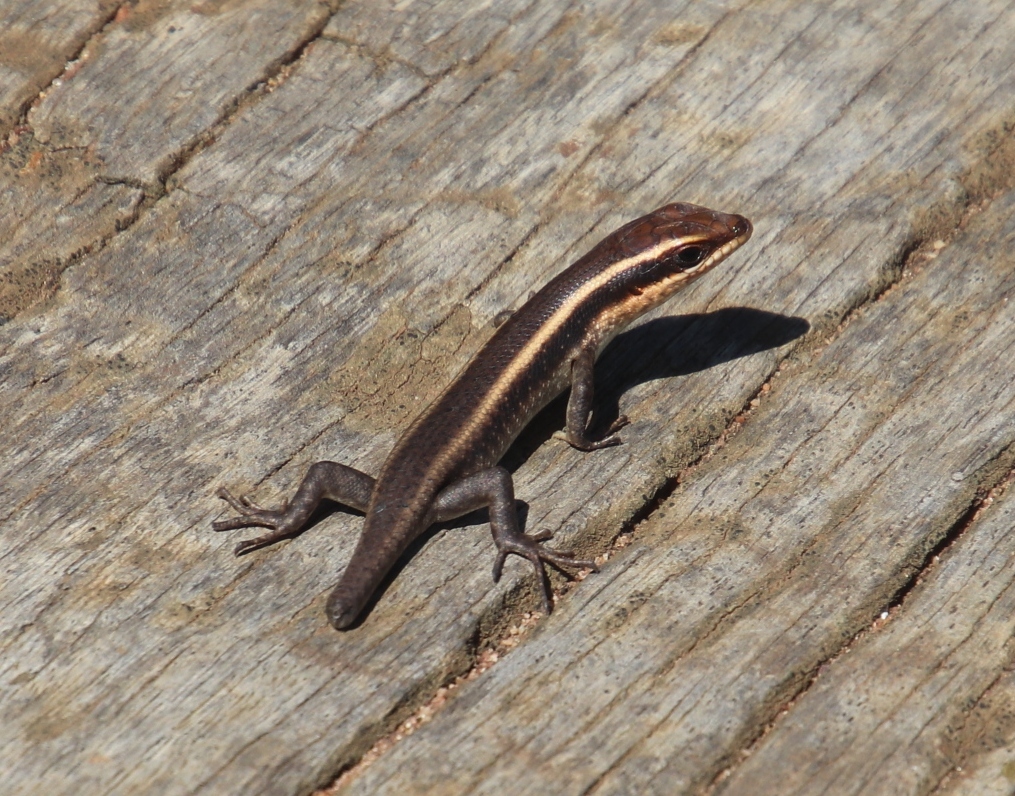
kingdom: Animalia
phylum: Chordata
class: Squamata
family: Scincidae
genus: Trachylepis
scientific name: Trachylepis striata
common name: African striped mabuya
